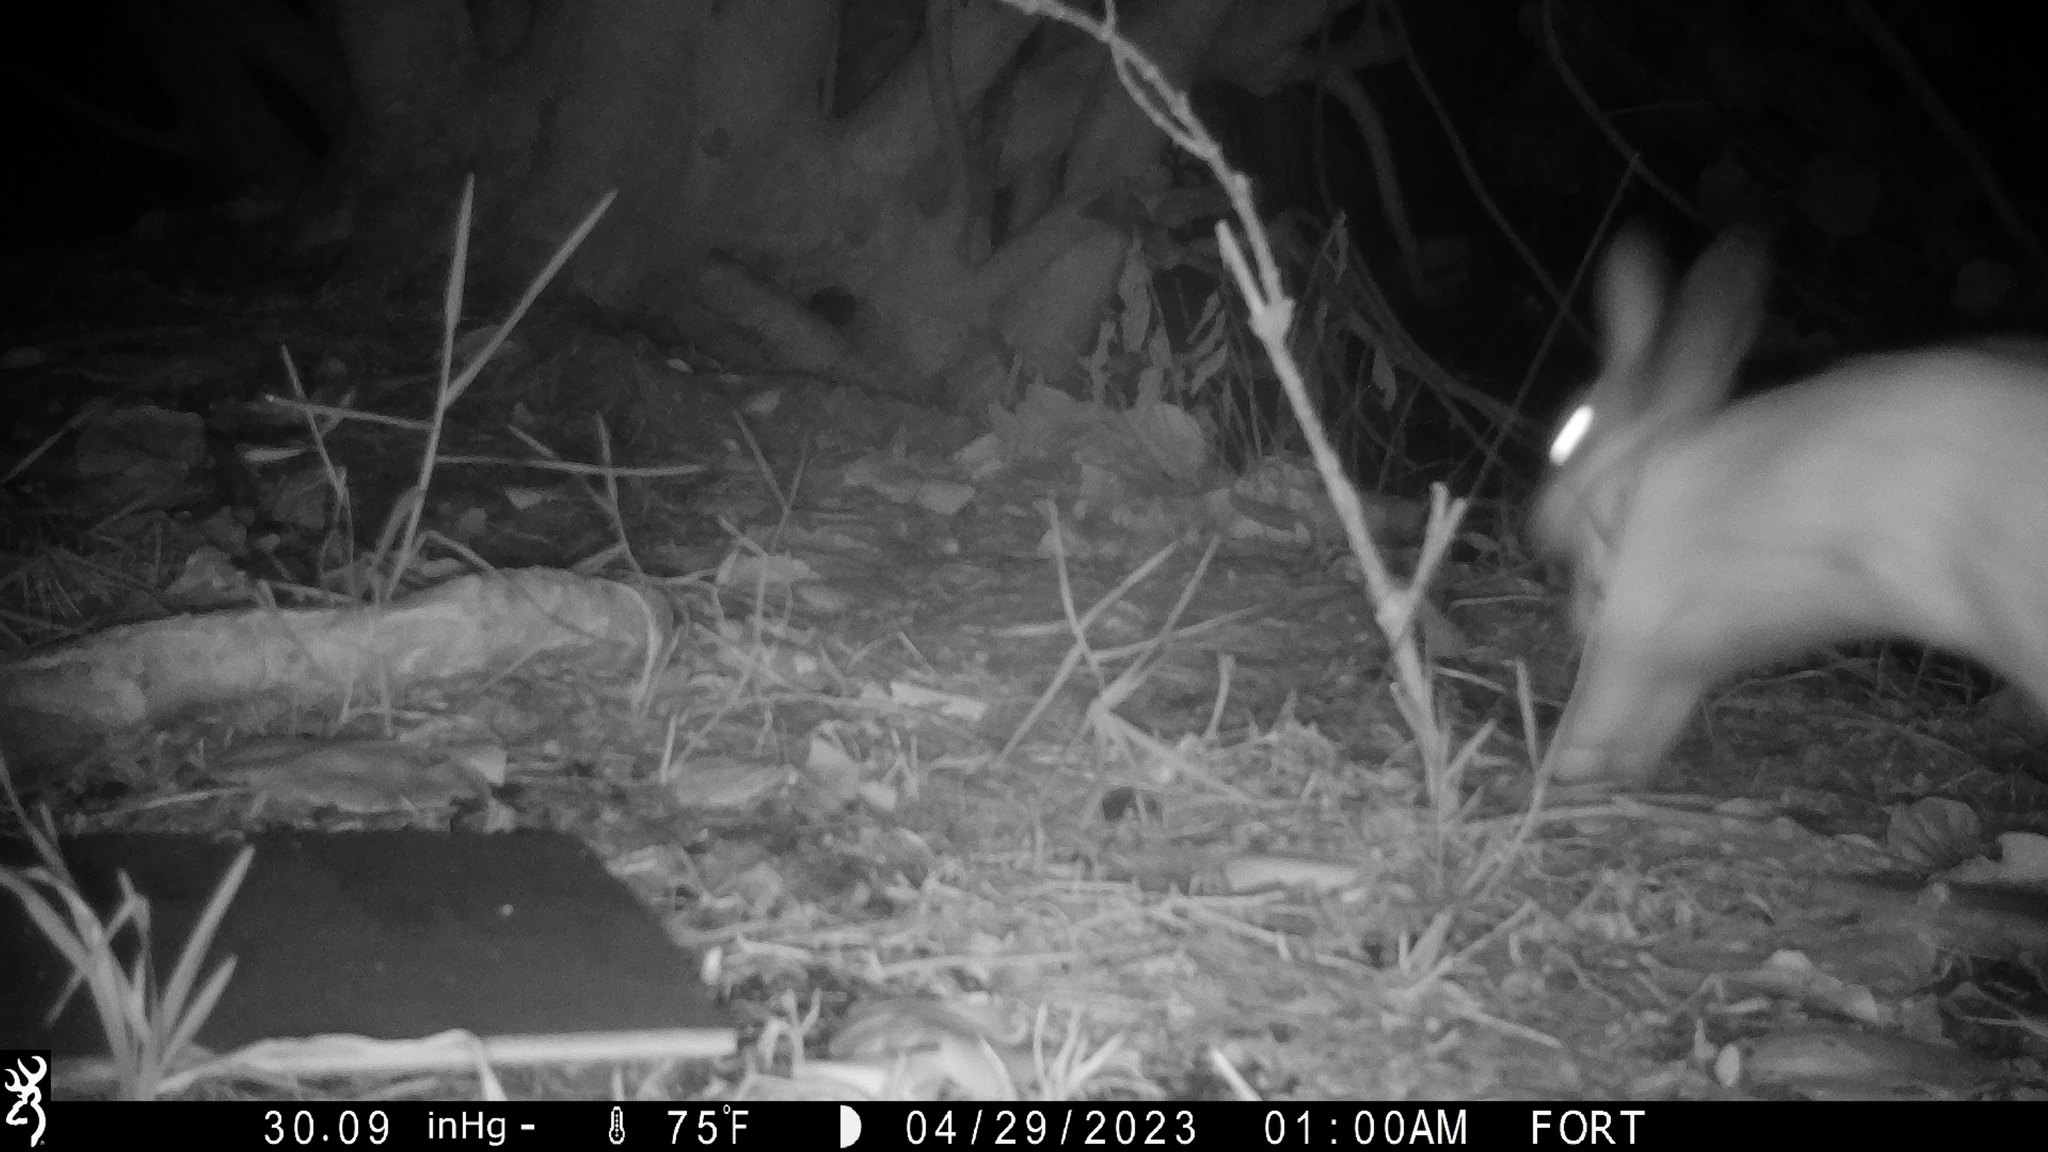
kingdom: Animalia
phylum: Chordata
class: Mammalia
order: Lagomorpha
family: Leporidae
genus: Oryctolagus
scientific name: Oryctolagus cuniculus
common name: European rabbit
